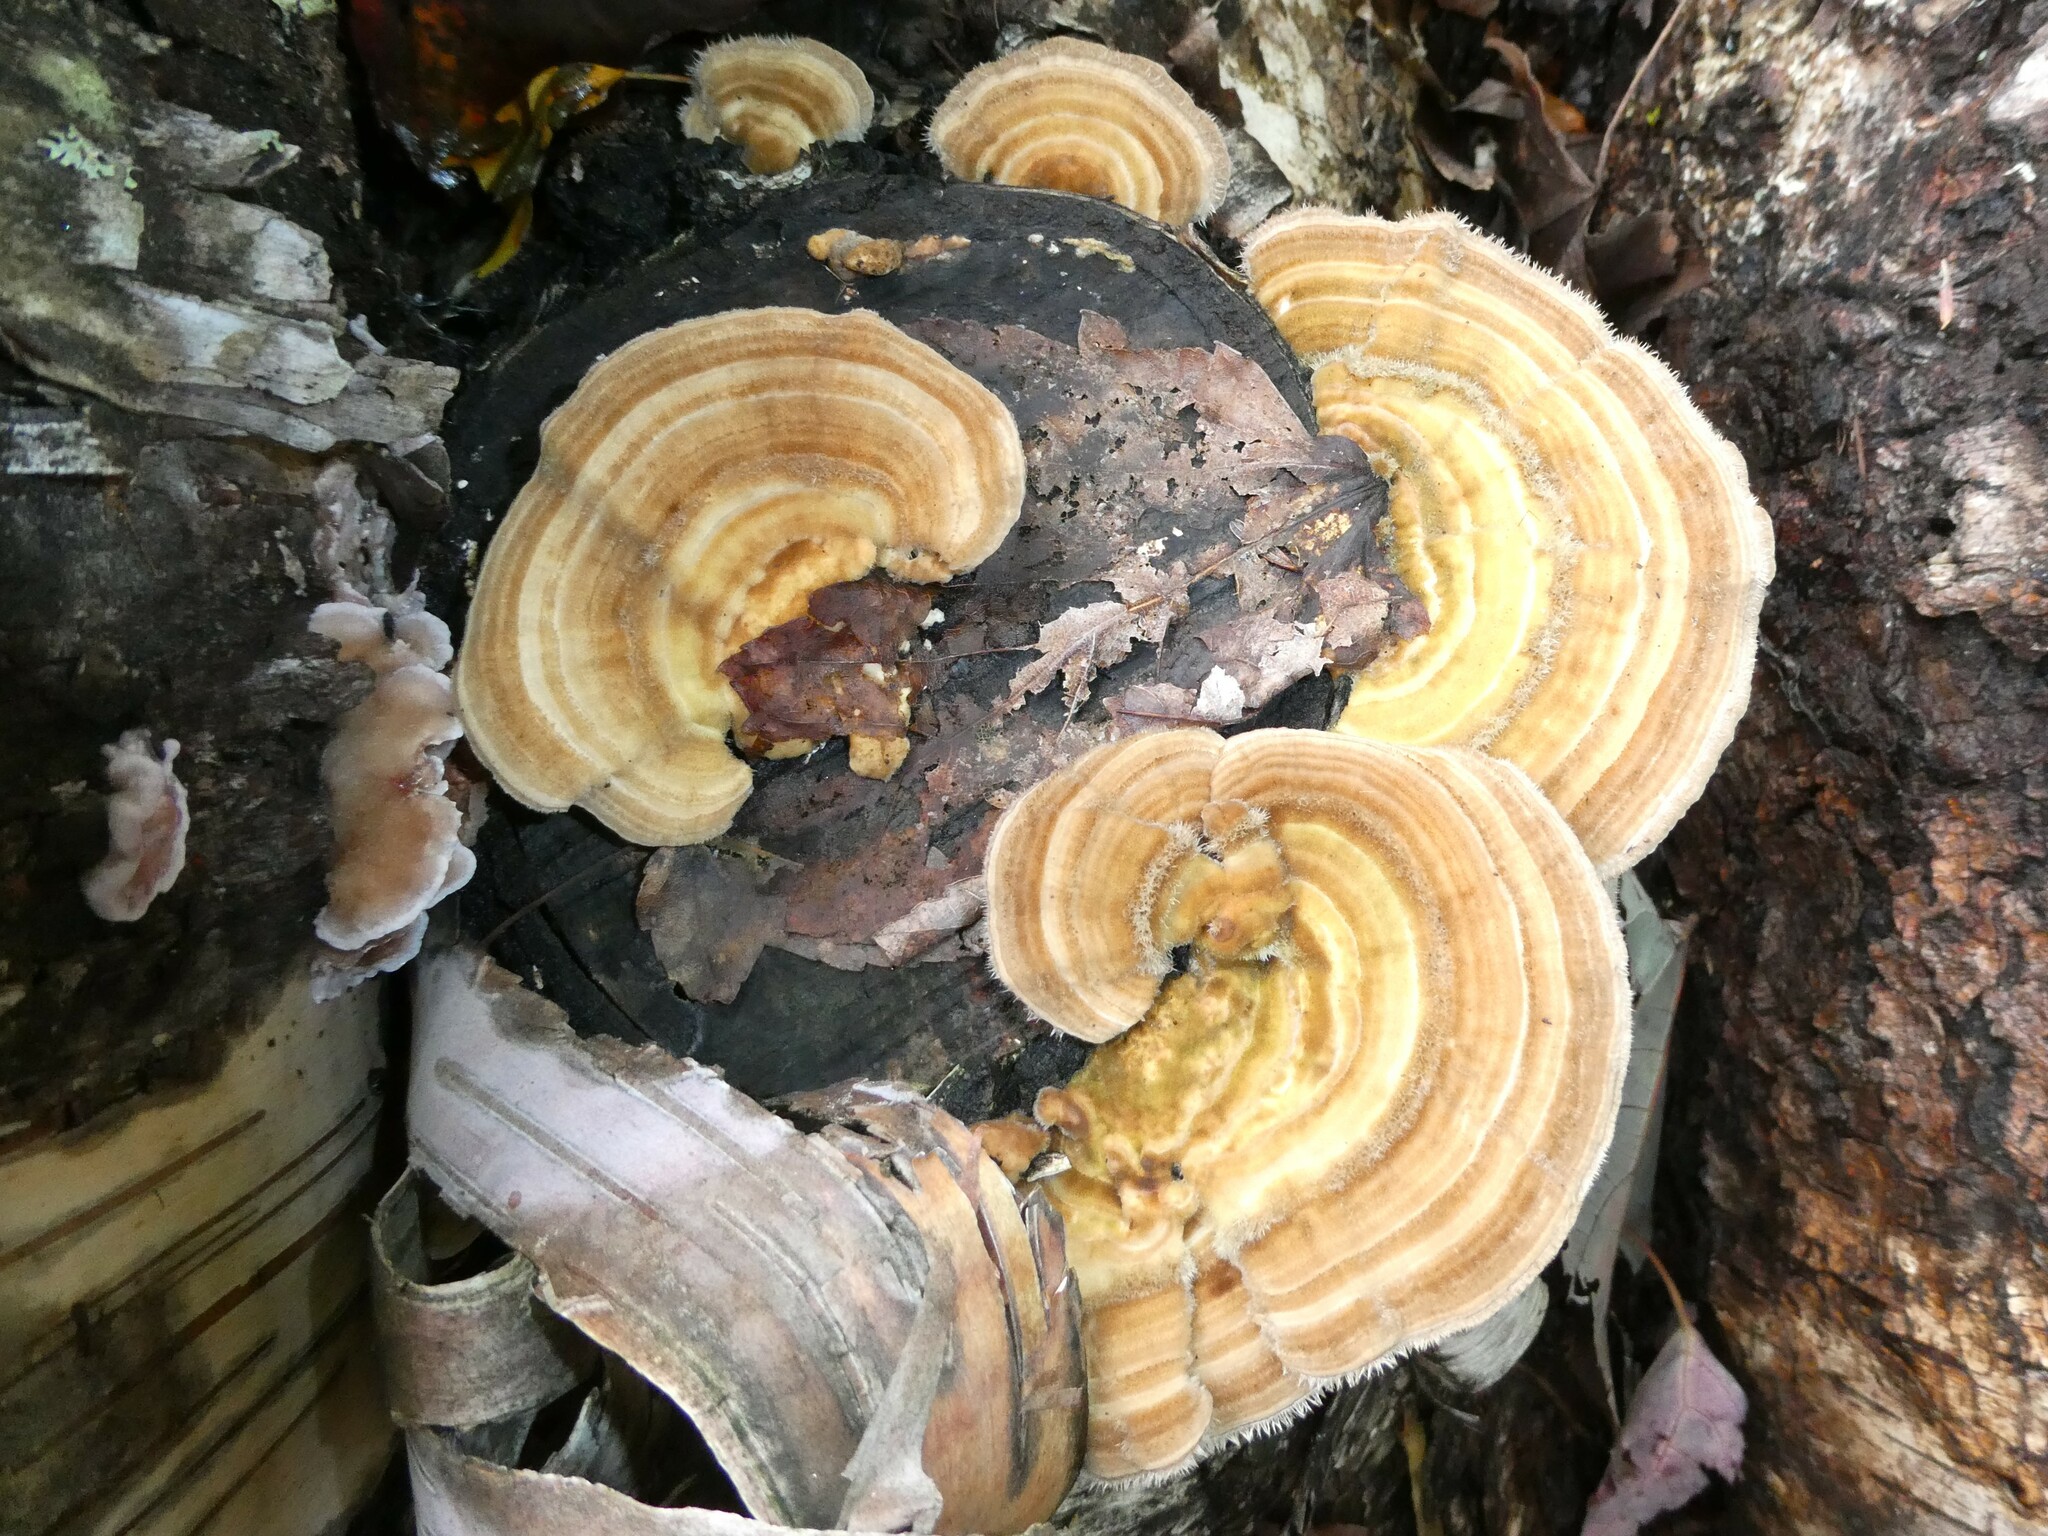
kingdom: Fungi
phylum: Basidiomycota
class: Agaricomycetes
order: Polyporales
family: Polyporaceae
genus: Lenzites
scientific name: Lenzites betulinus
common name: Birch mazegill
